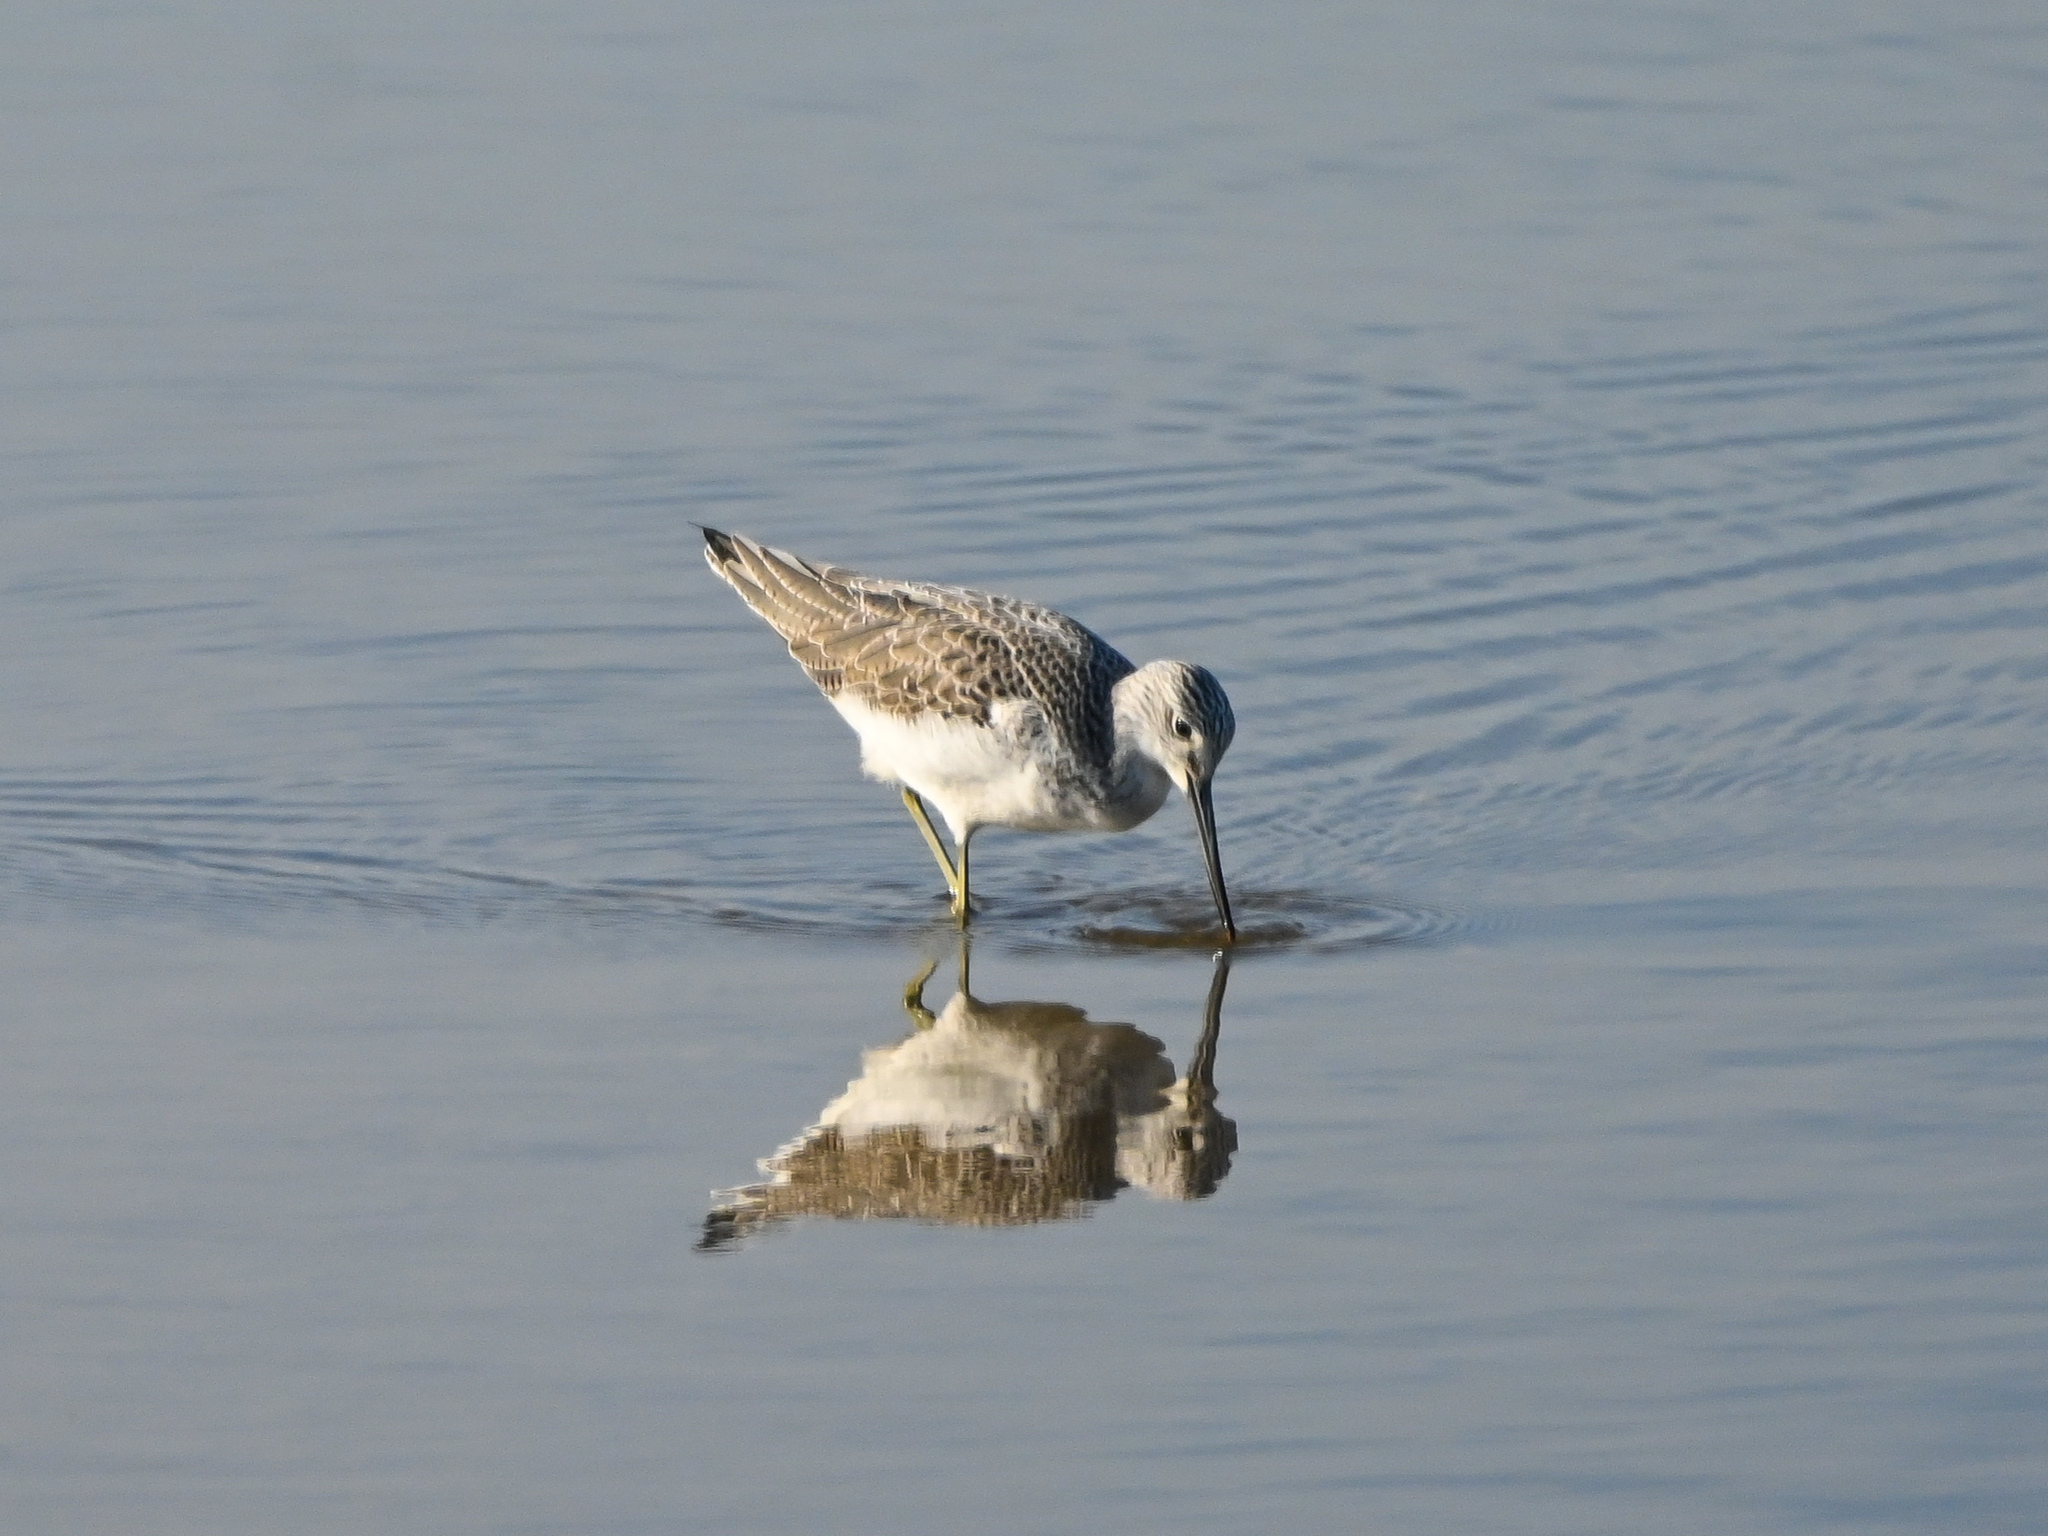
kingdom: Animalia
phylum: Chordata
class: Aves
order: Charadriiformes
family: Scolopacidae
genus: Tringa
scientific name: Tringa nebularia
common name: Common greenshank
